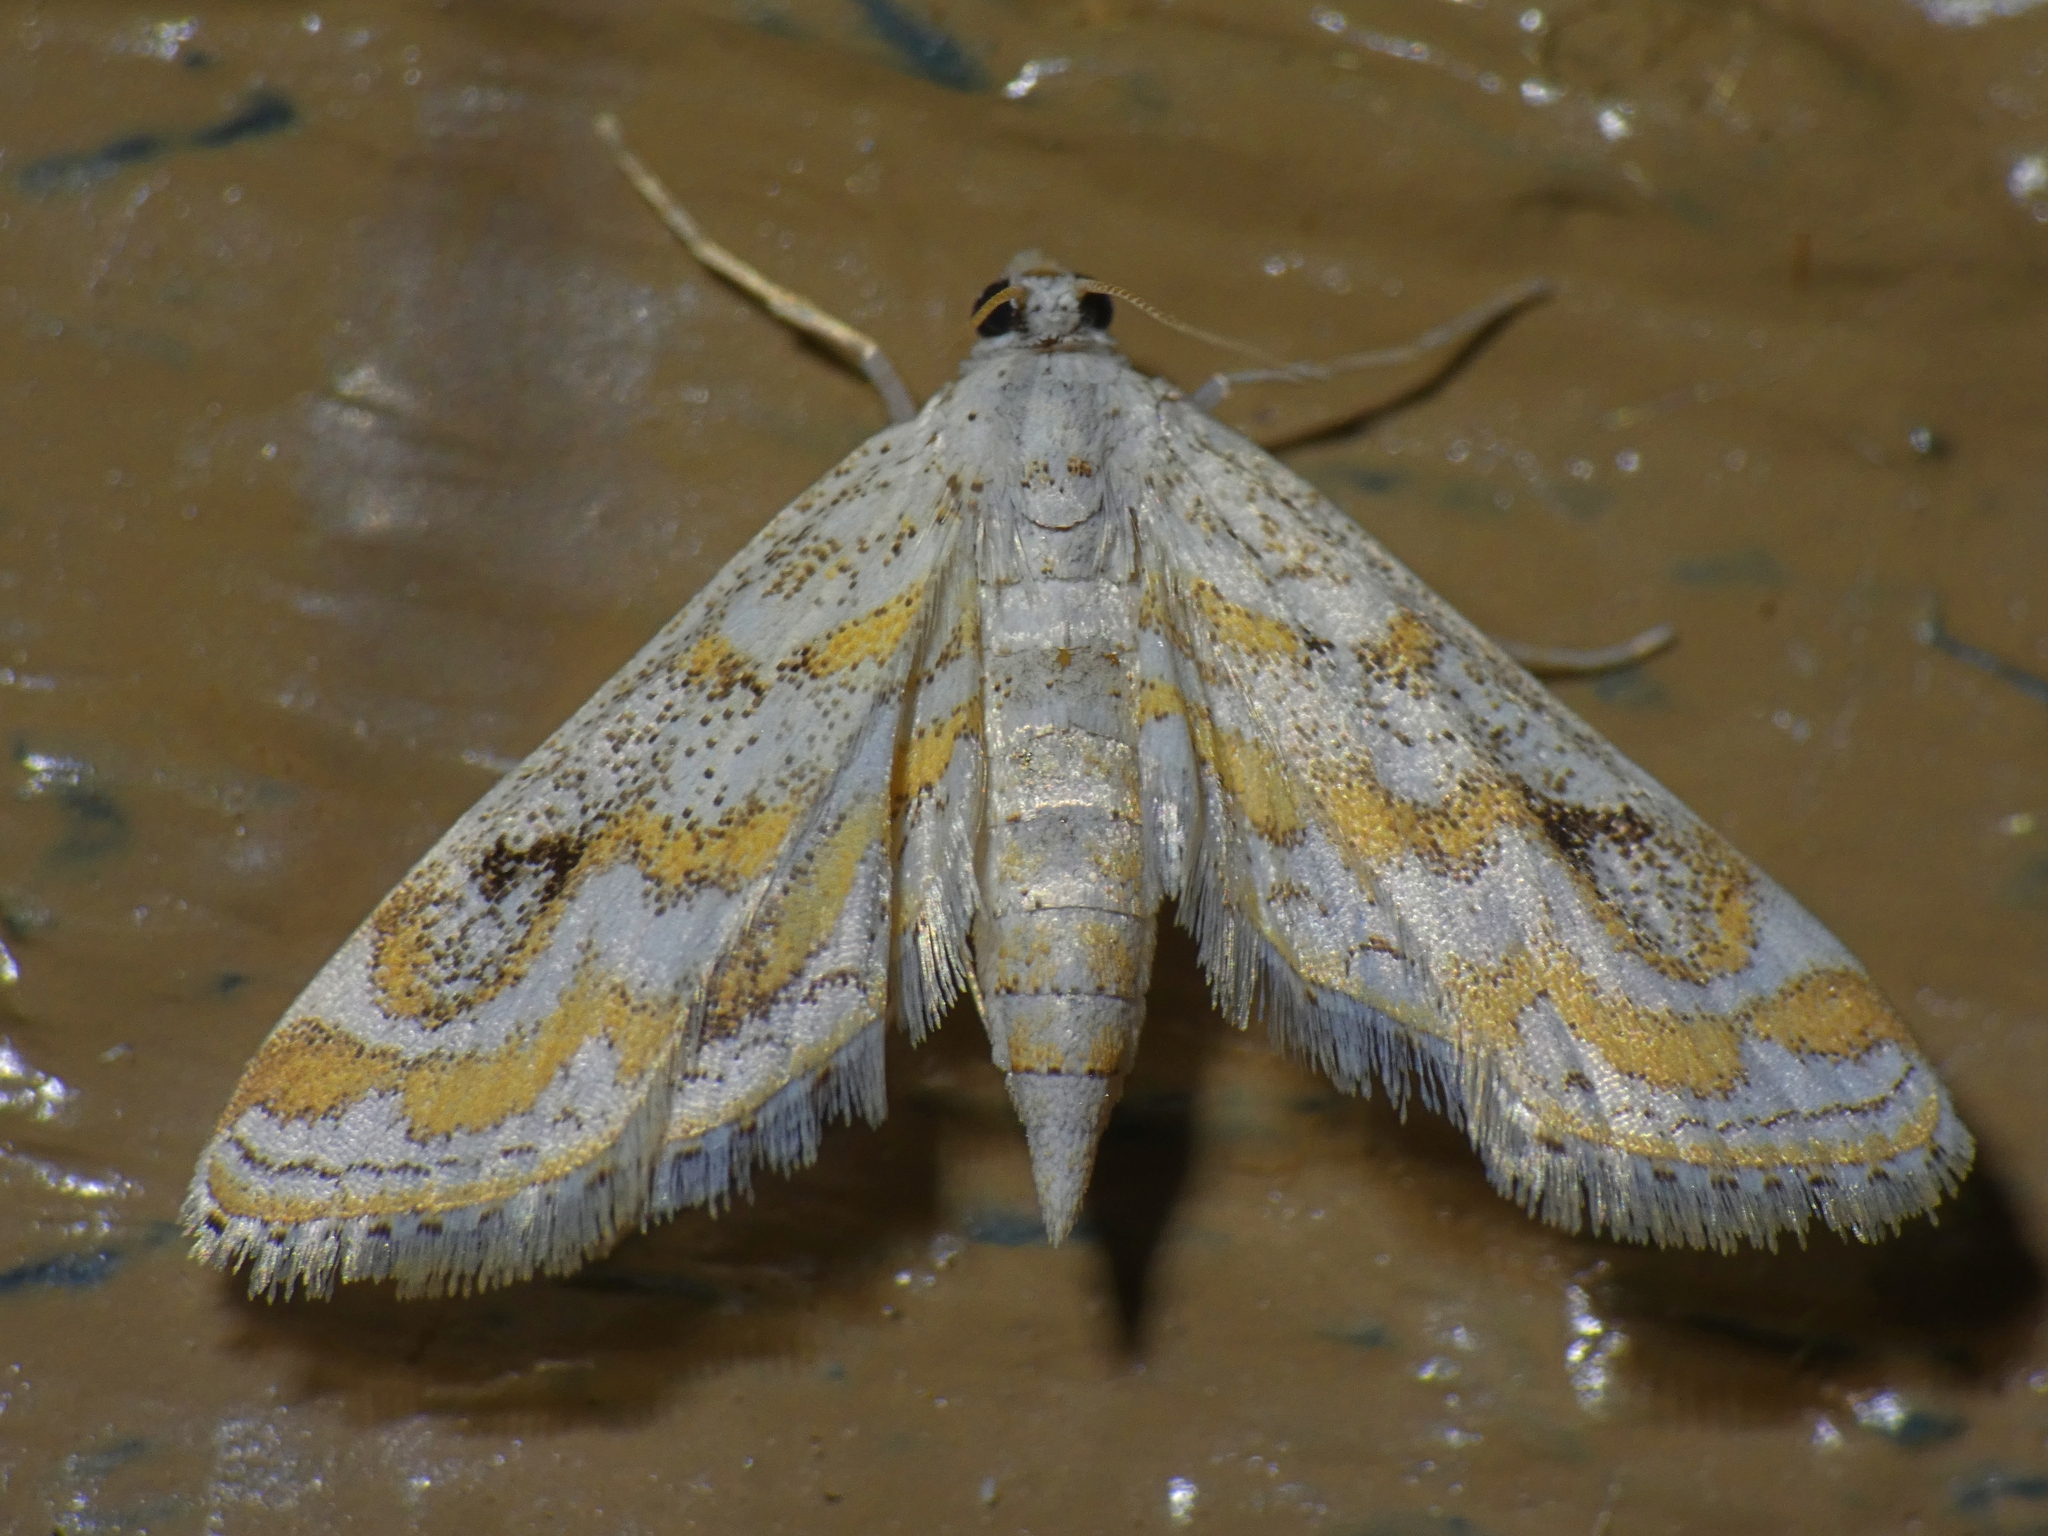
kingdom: Animalia
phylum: Arthropoda
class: Insecta
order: Lepidoptera
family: Crambidae
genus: Parapoynx
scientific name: Parapoynx diminutalis
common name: Hydrilla leafcutter
